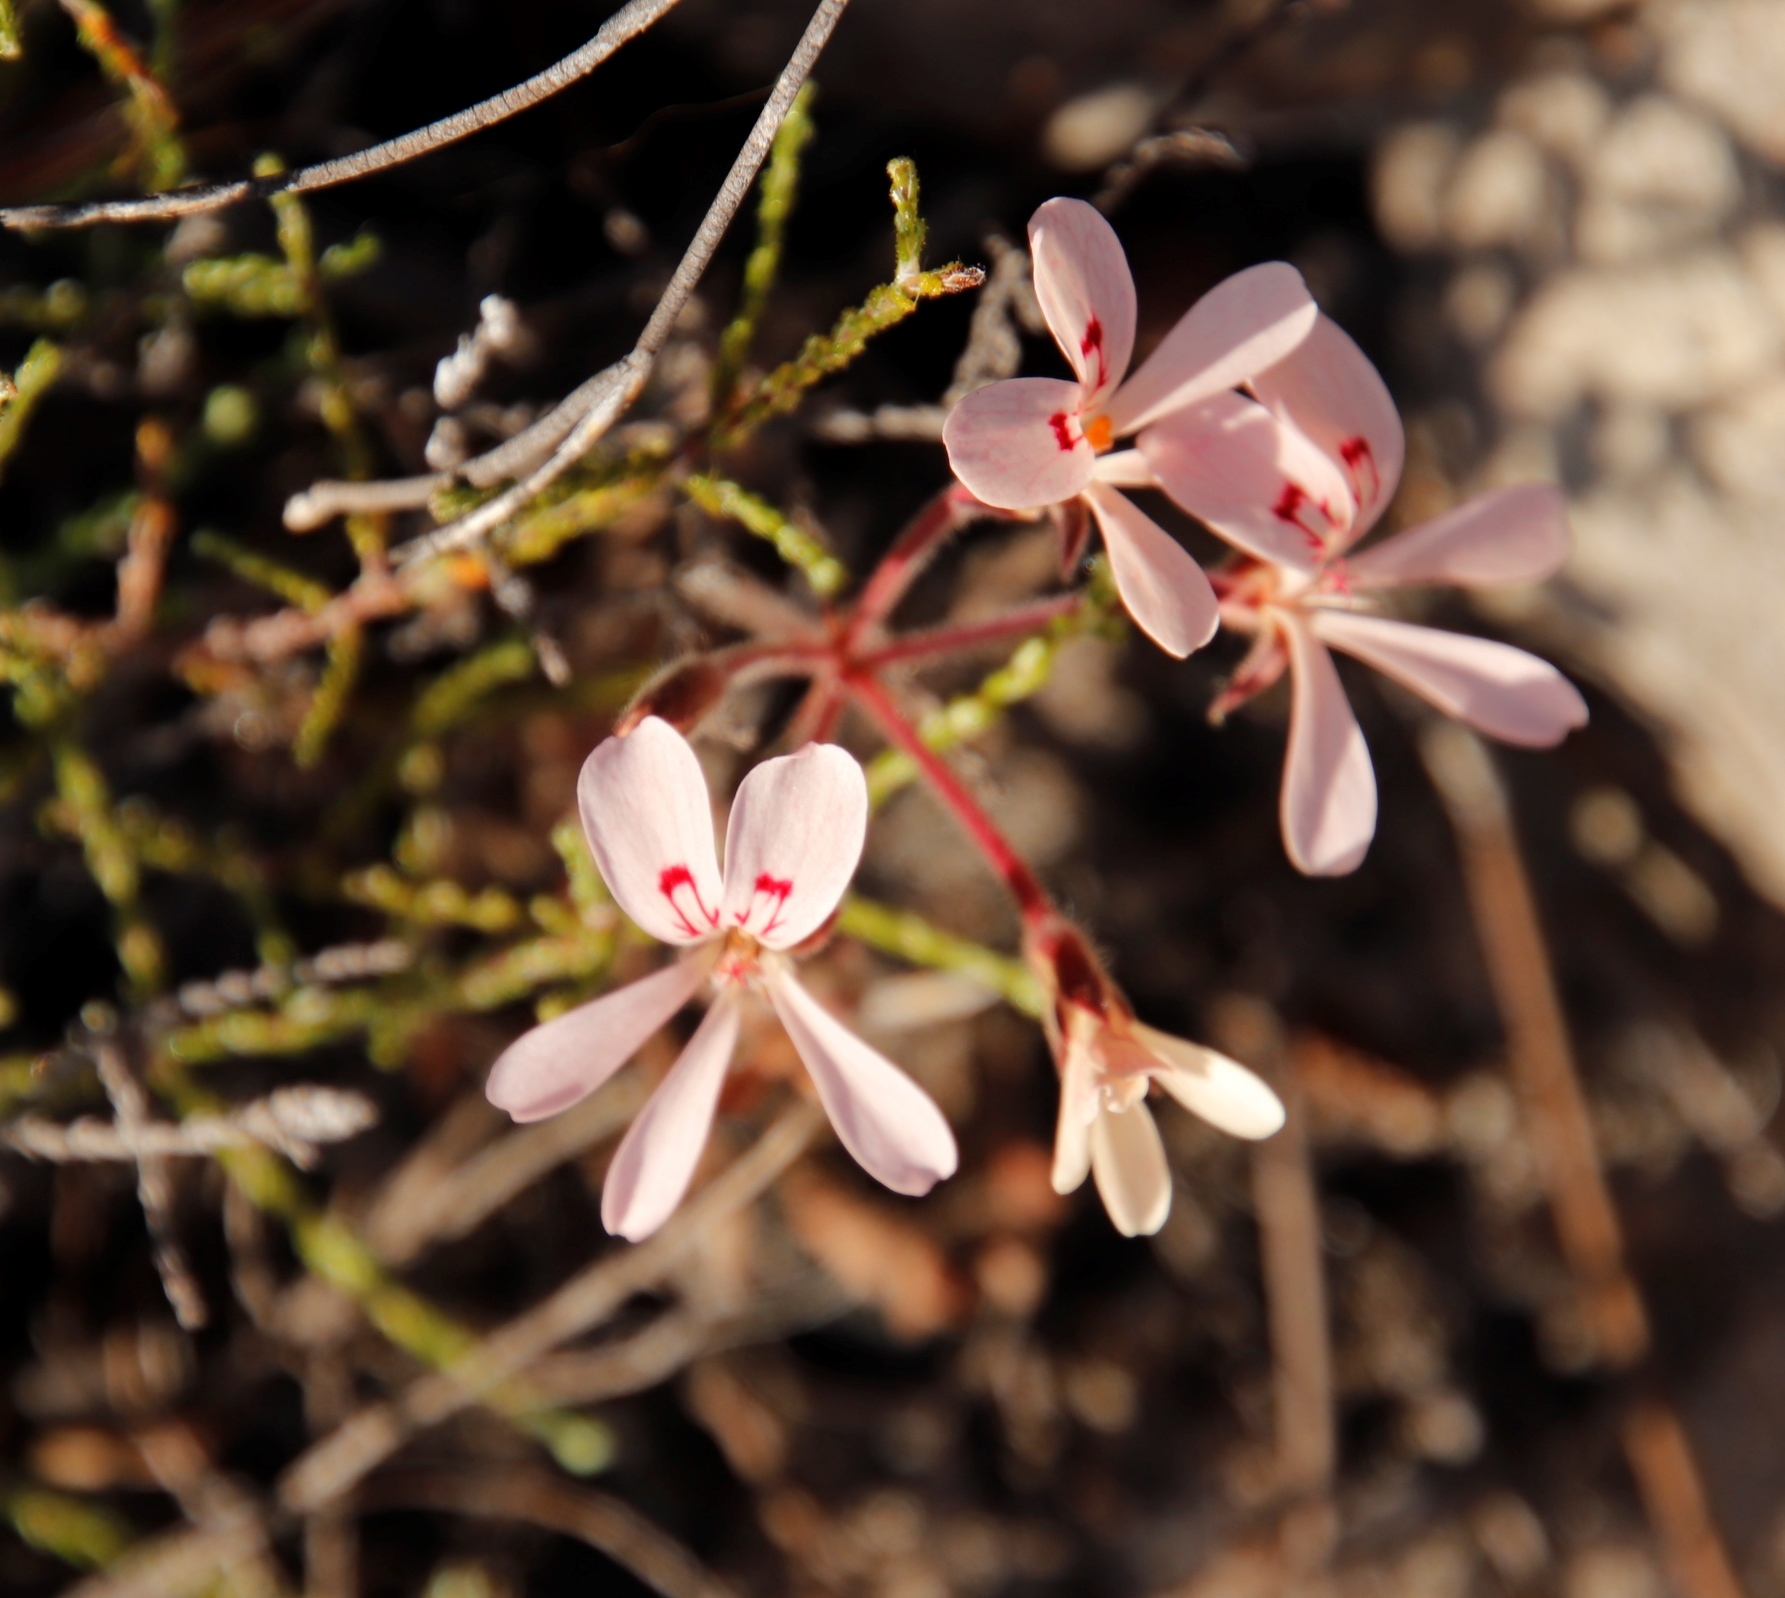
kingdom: Plantae
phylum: Tracheophyta
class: Magnoliopsida
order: Geraniales
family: Geraniaceae
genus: Pelargonium
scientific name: Pelargonium pinnatum
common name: Pinnated pelargonium
